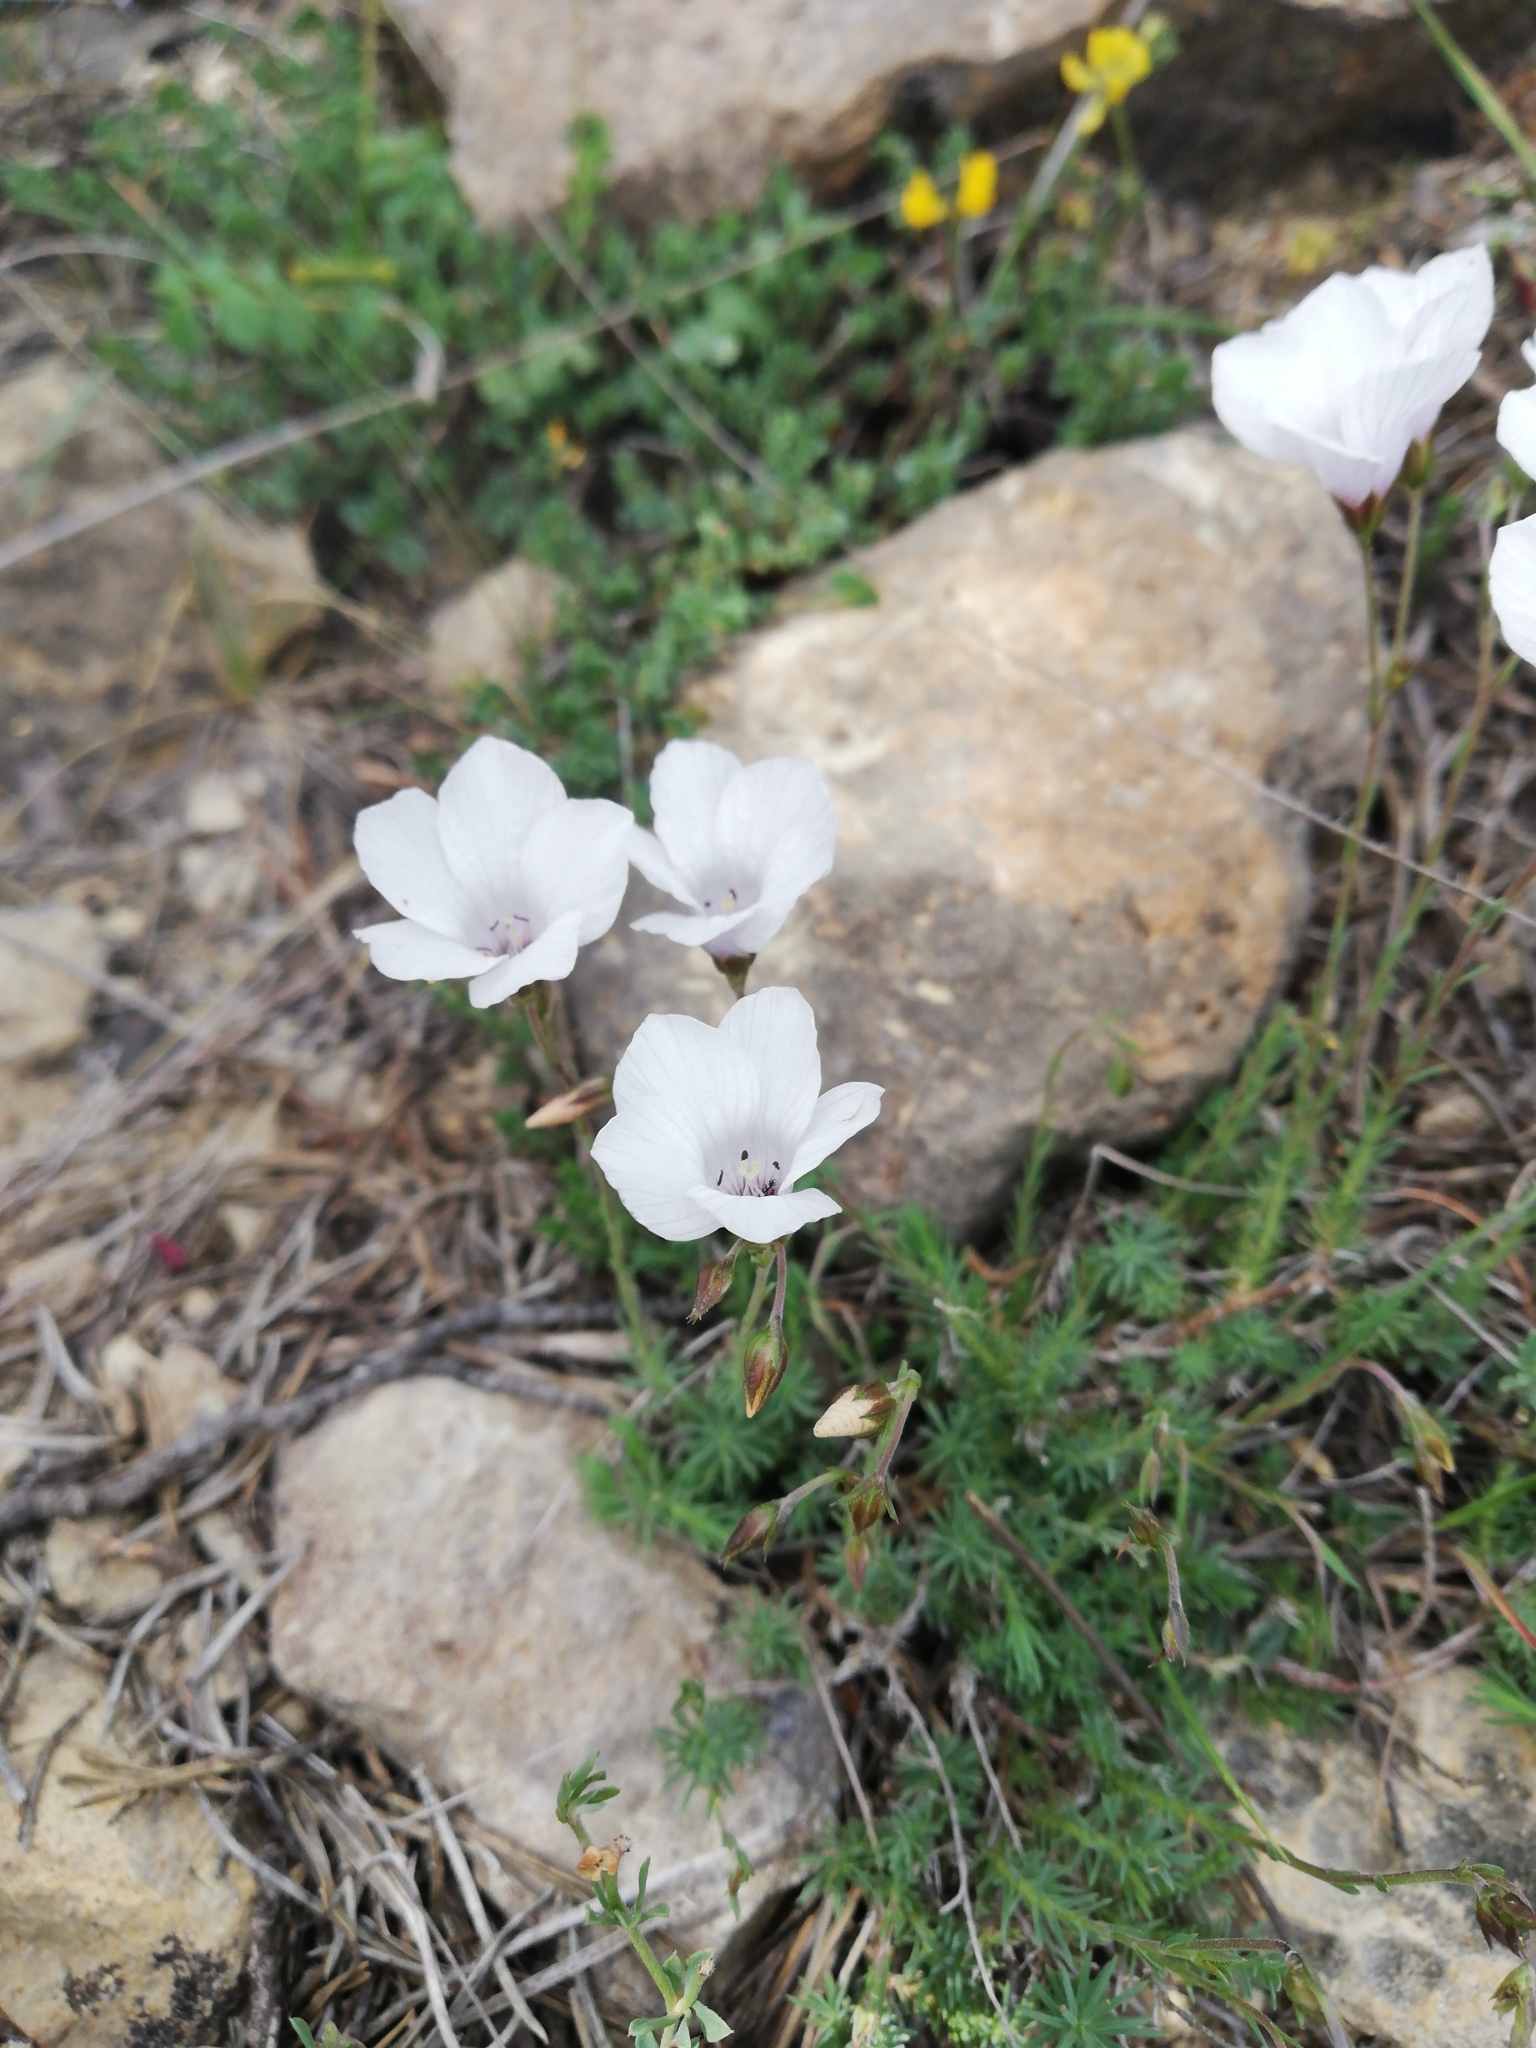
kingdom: Plantae
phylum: Tracheophyta
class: Magnoliopsida
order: Malpighiales
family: Linaceae
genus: Linum
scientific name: Linum suffruticosum
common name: White flax
